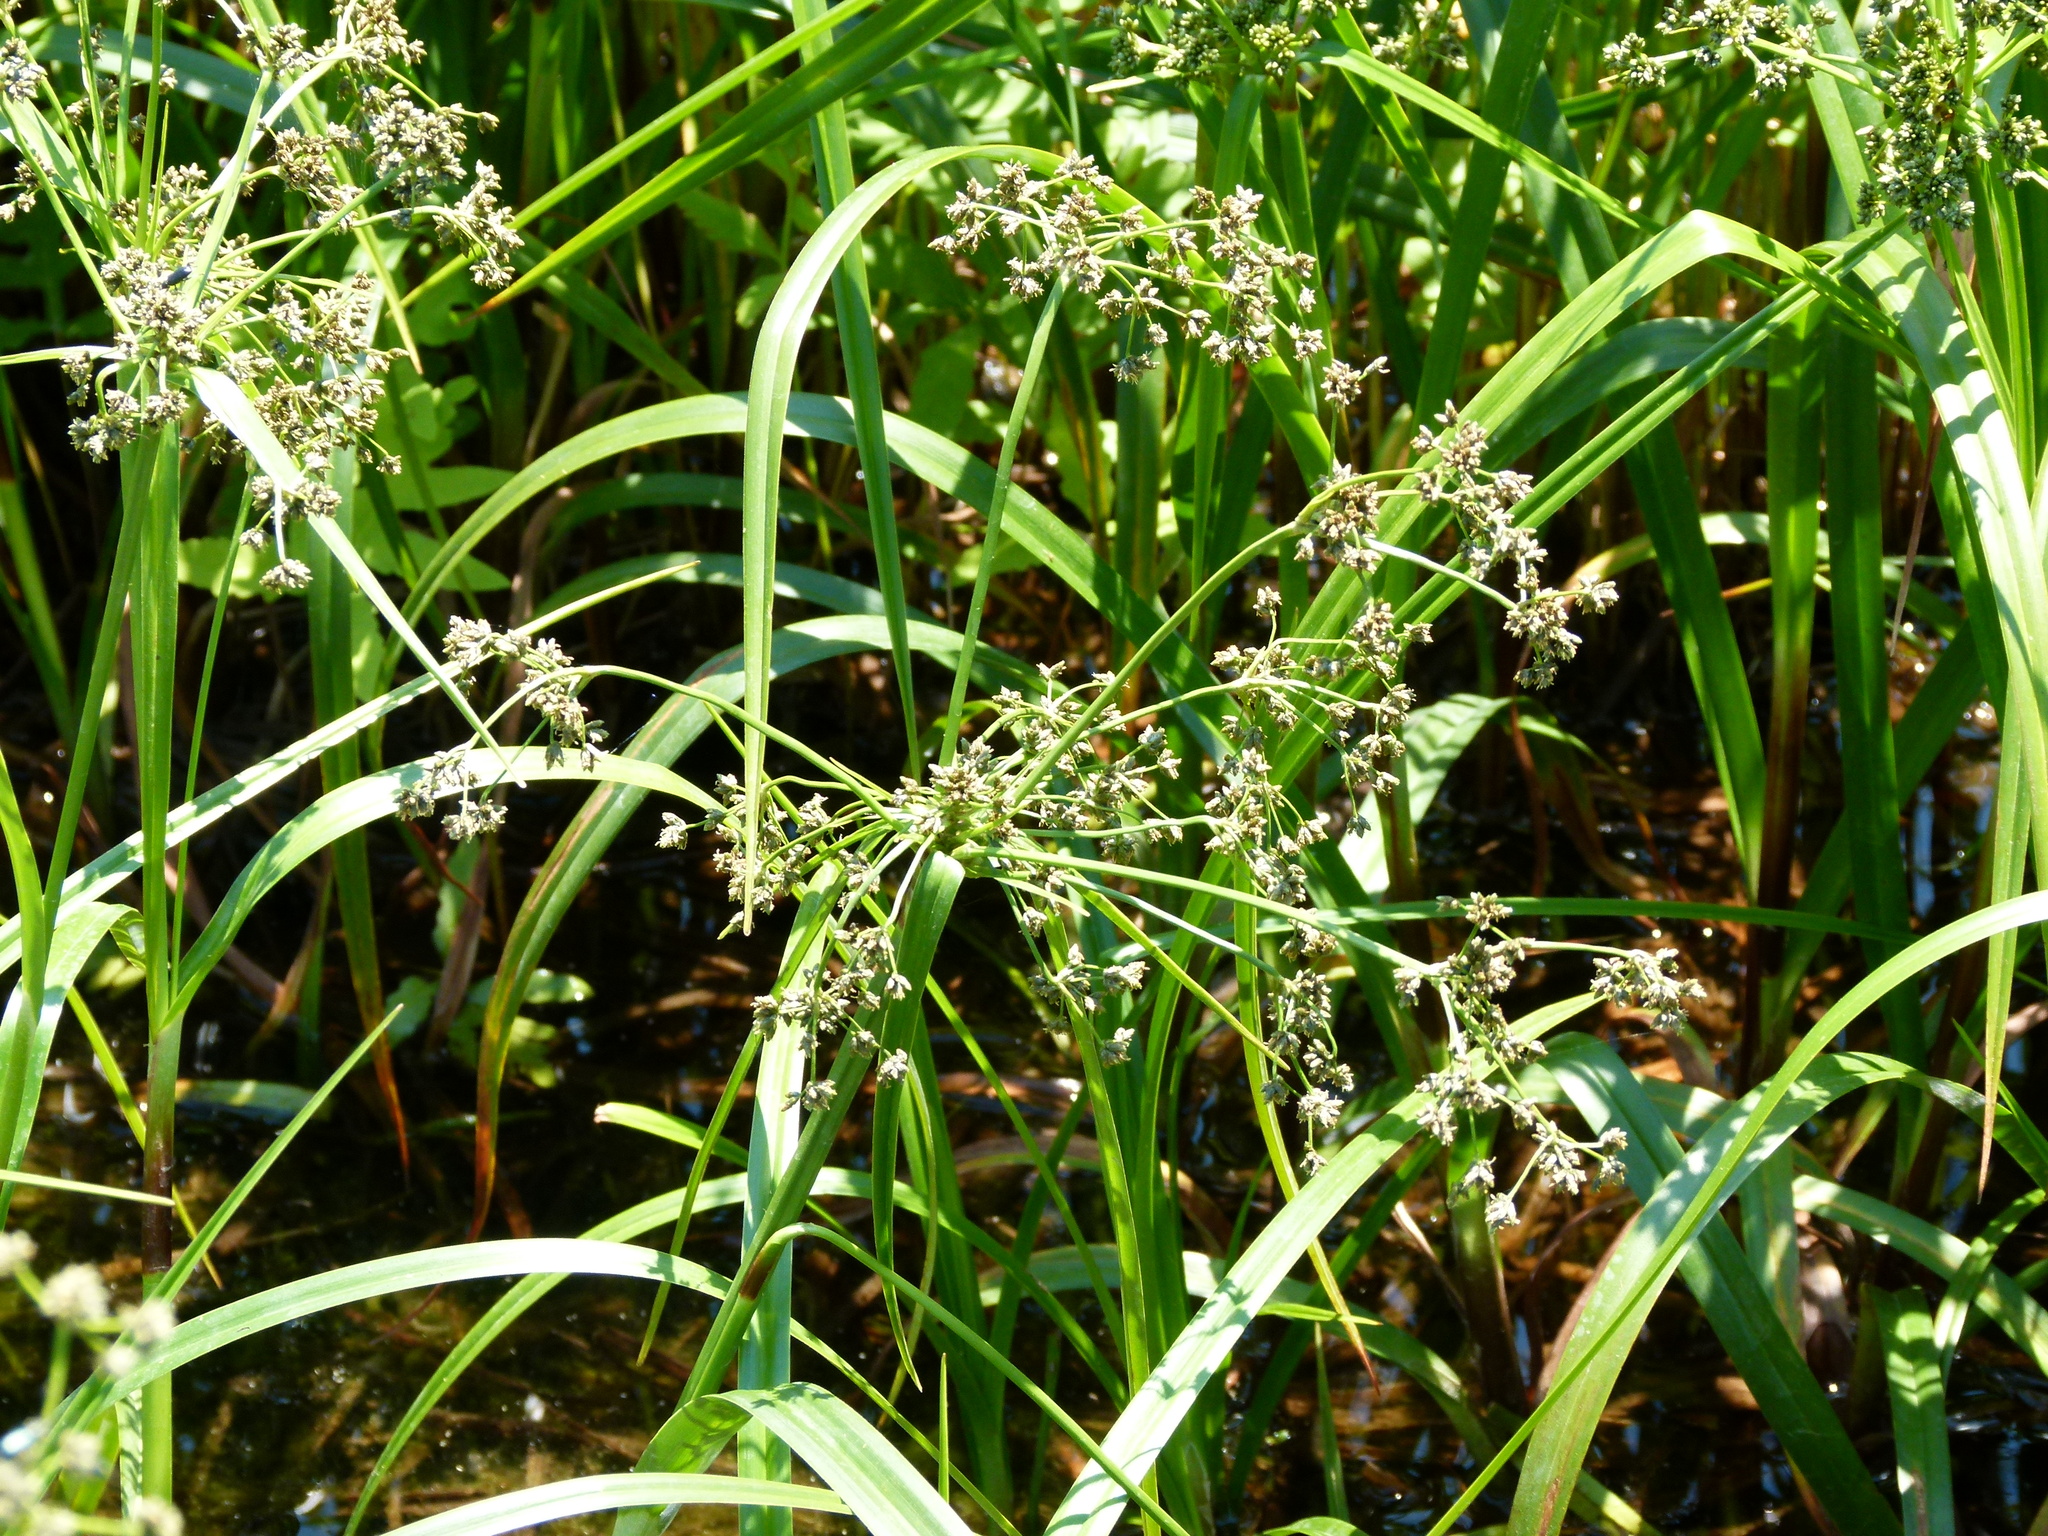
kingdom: Plantae
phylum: Tracheophyta
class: Liliopsida
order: Poales
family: Cyperaceae
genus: Scirpus
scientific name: Scirpus microcarpus
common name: Panicled bulrush
